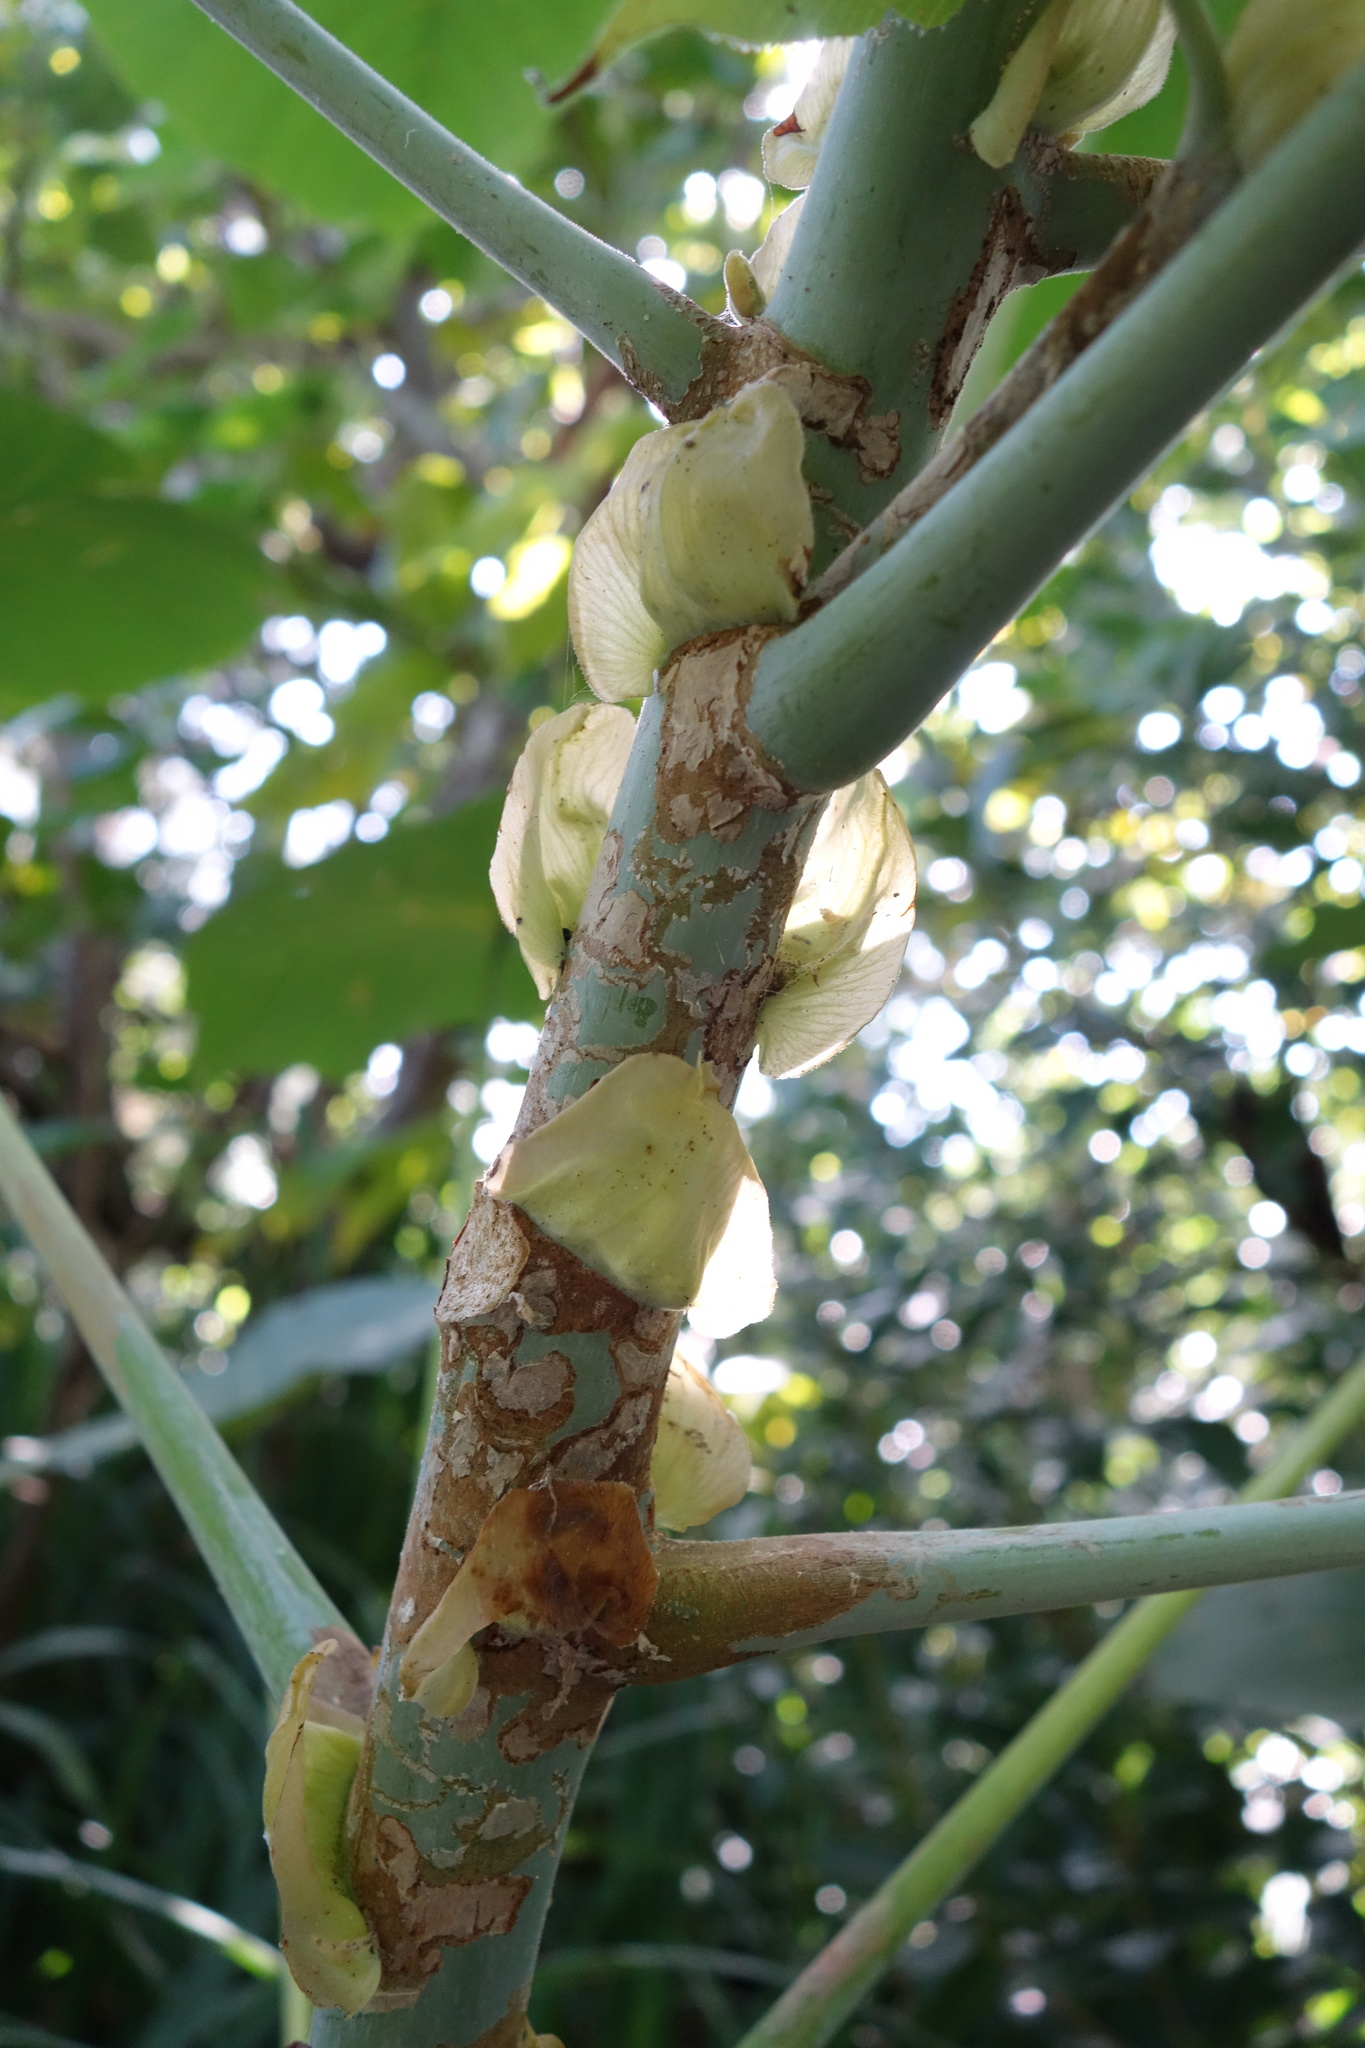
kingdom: Plantae
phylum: Tracheophyta
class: Magnoliopsida
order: Malpighiales
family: Euphorbiaceae
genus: Macaranga
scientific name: Macaranga tanarius
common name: Parasol leaf tree
